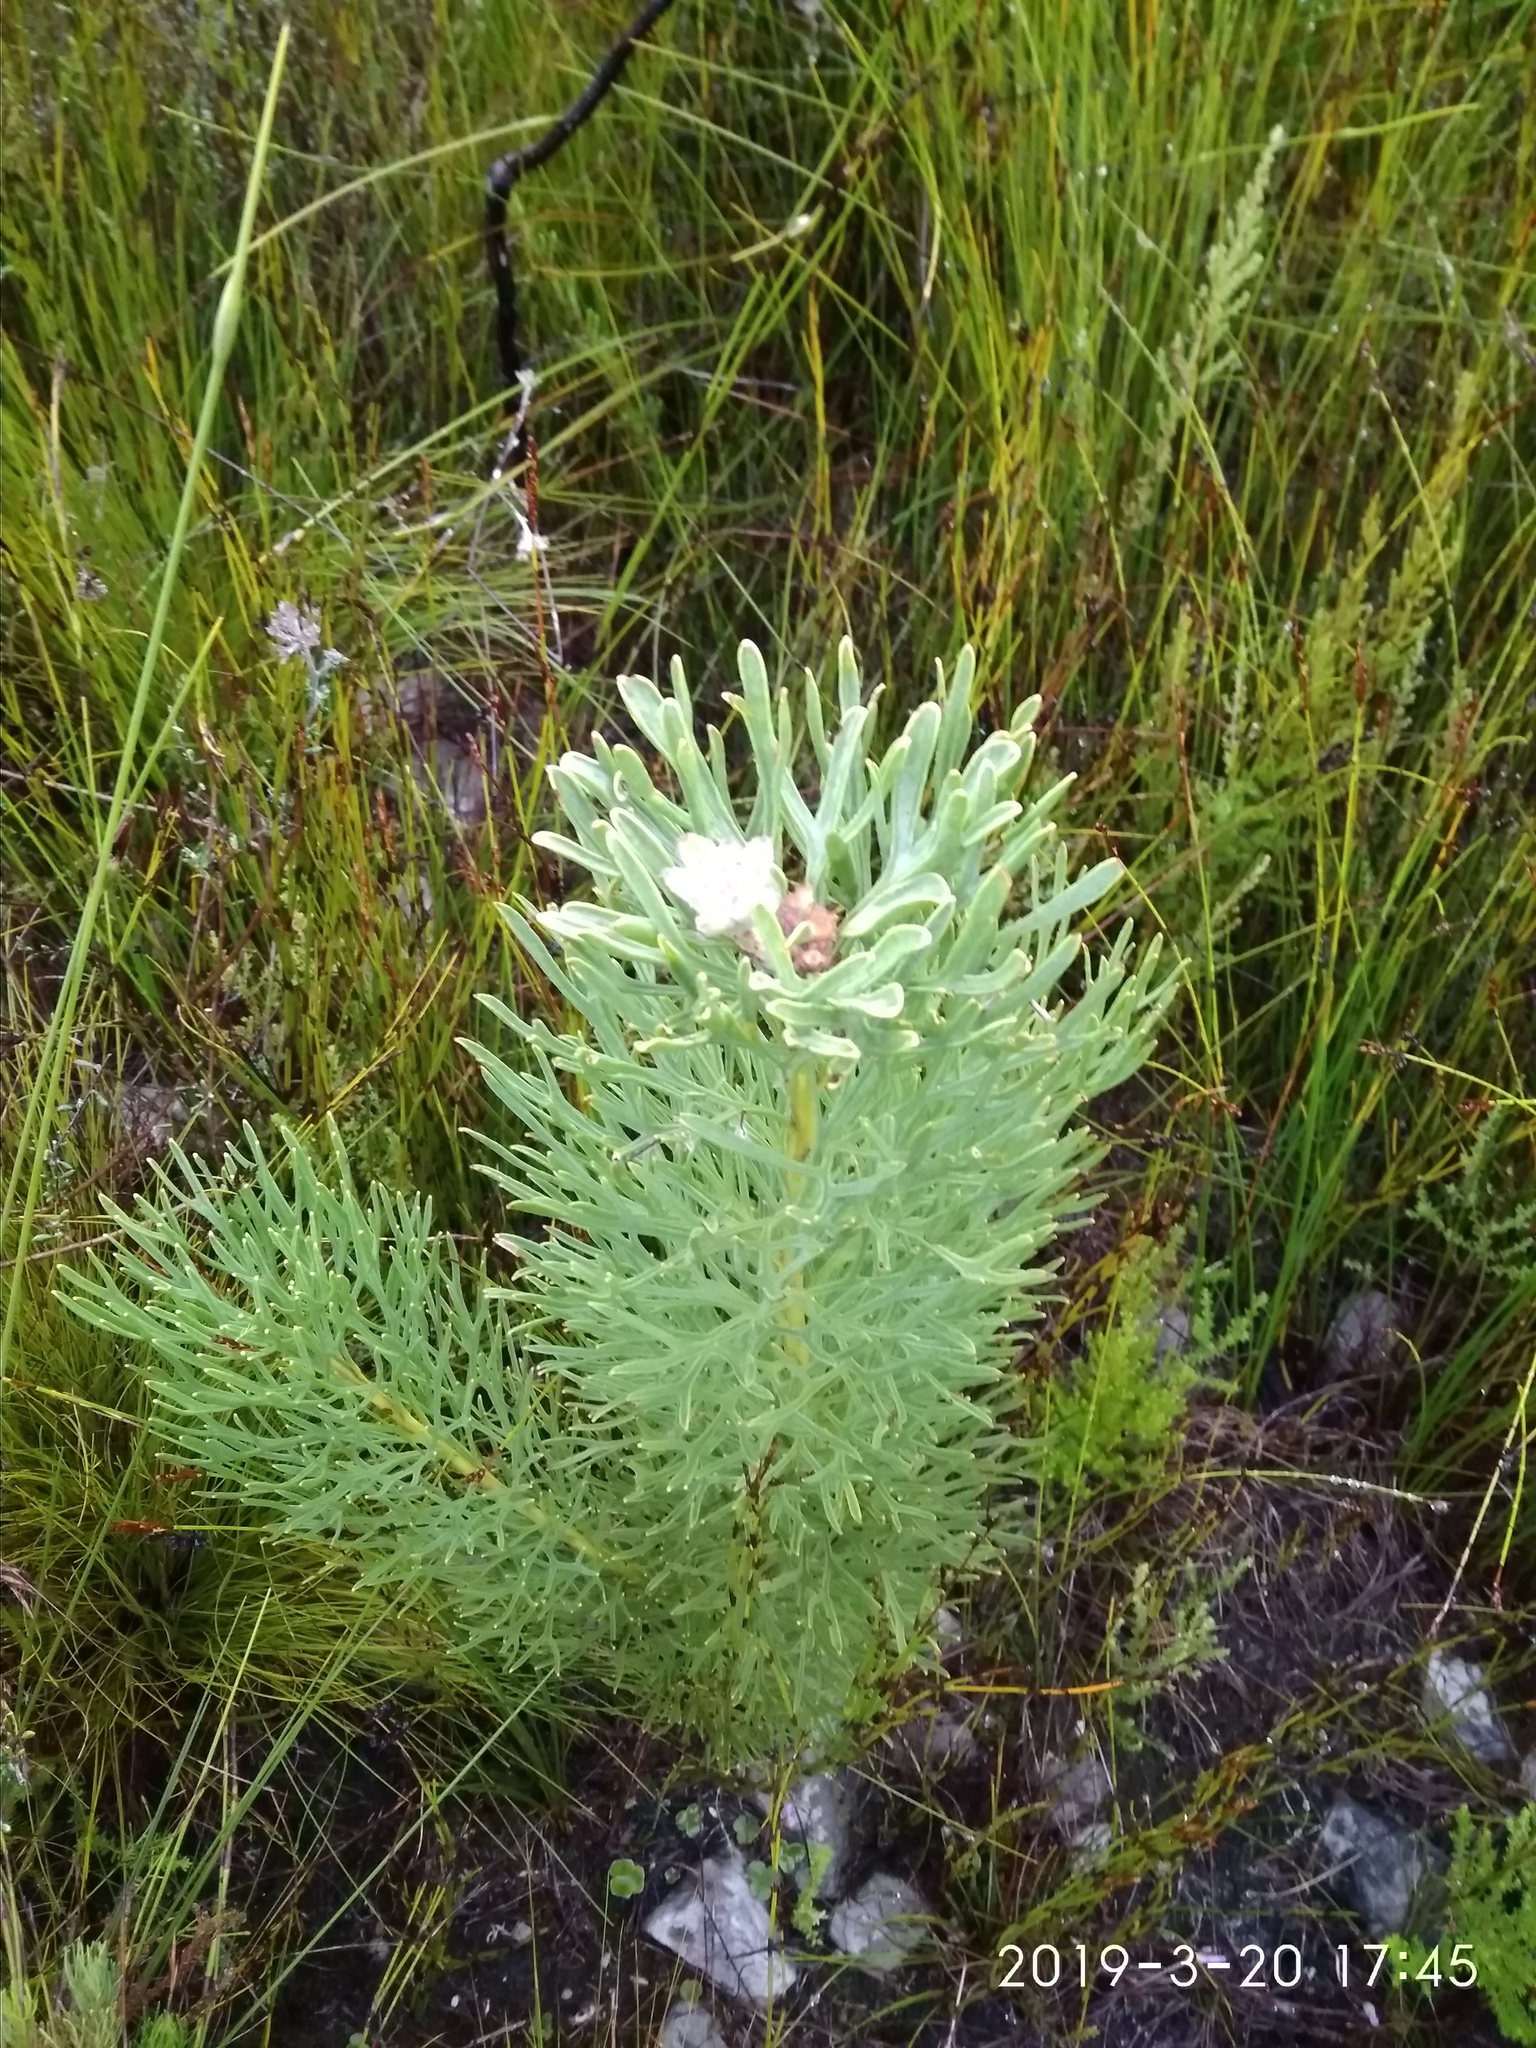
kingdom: Plantae
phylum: Tracheophyta
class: Magnoliopsida
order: Proteales
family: Proteaceae
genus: Paranomus
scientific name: Paranomus dispersus
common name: Long-head sceptre
